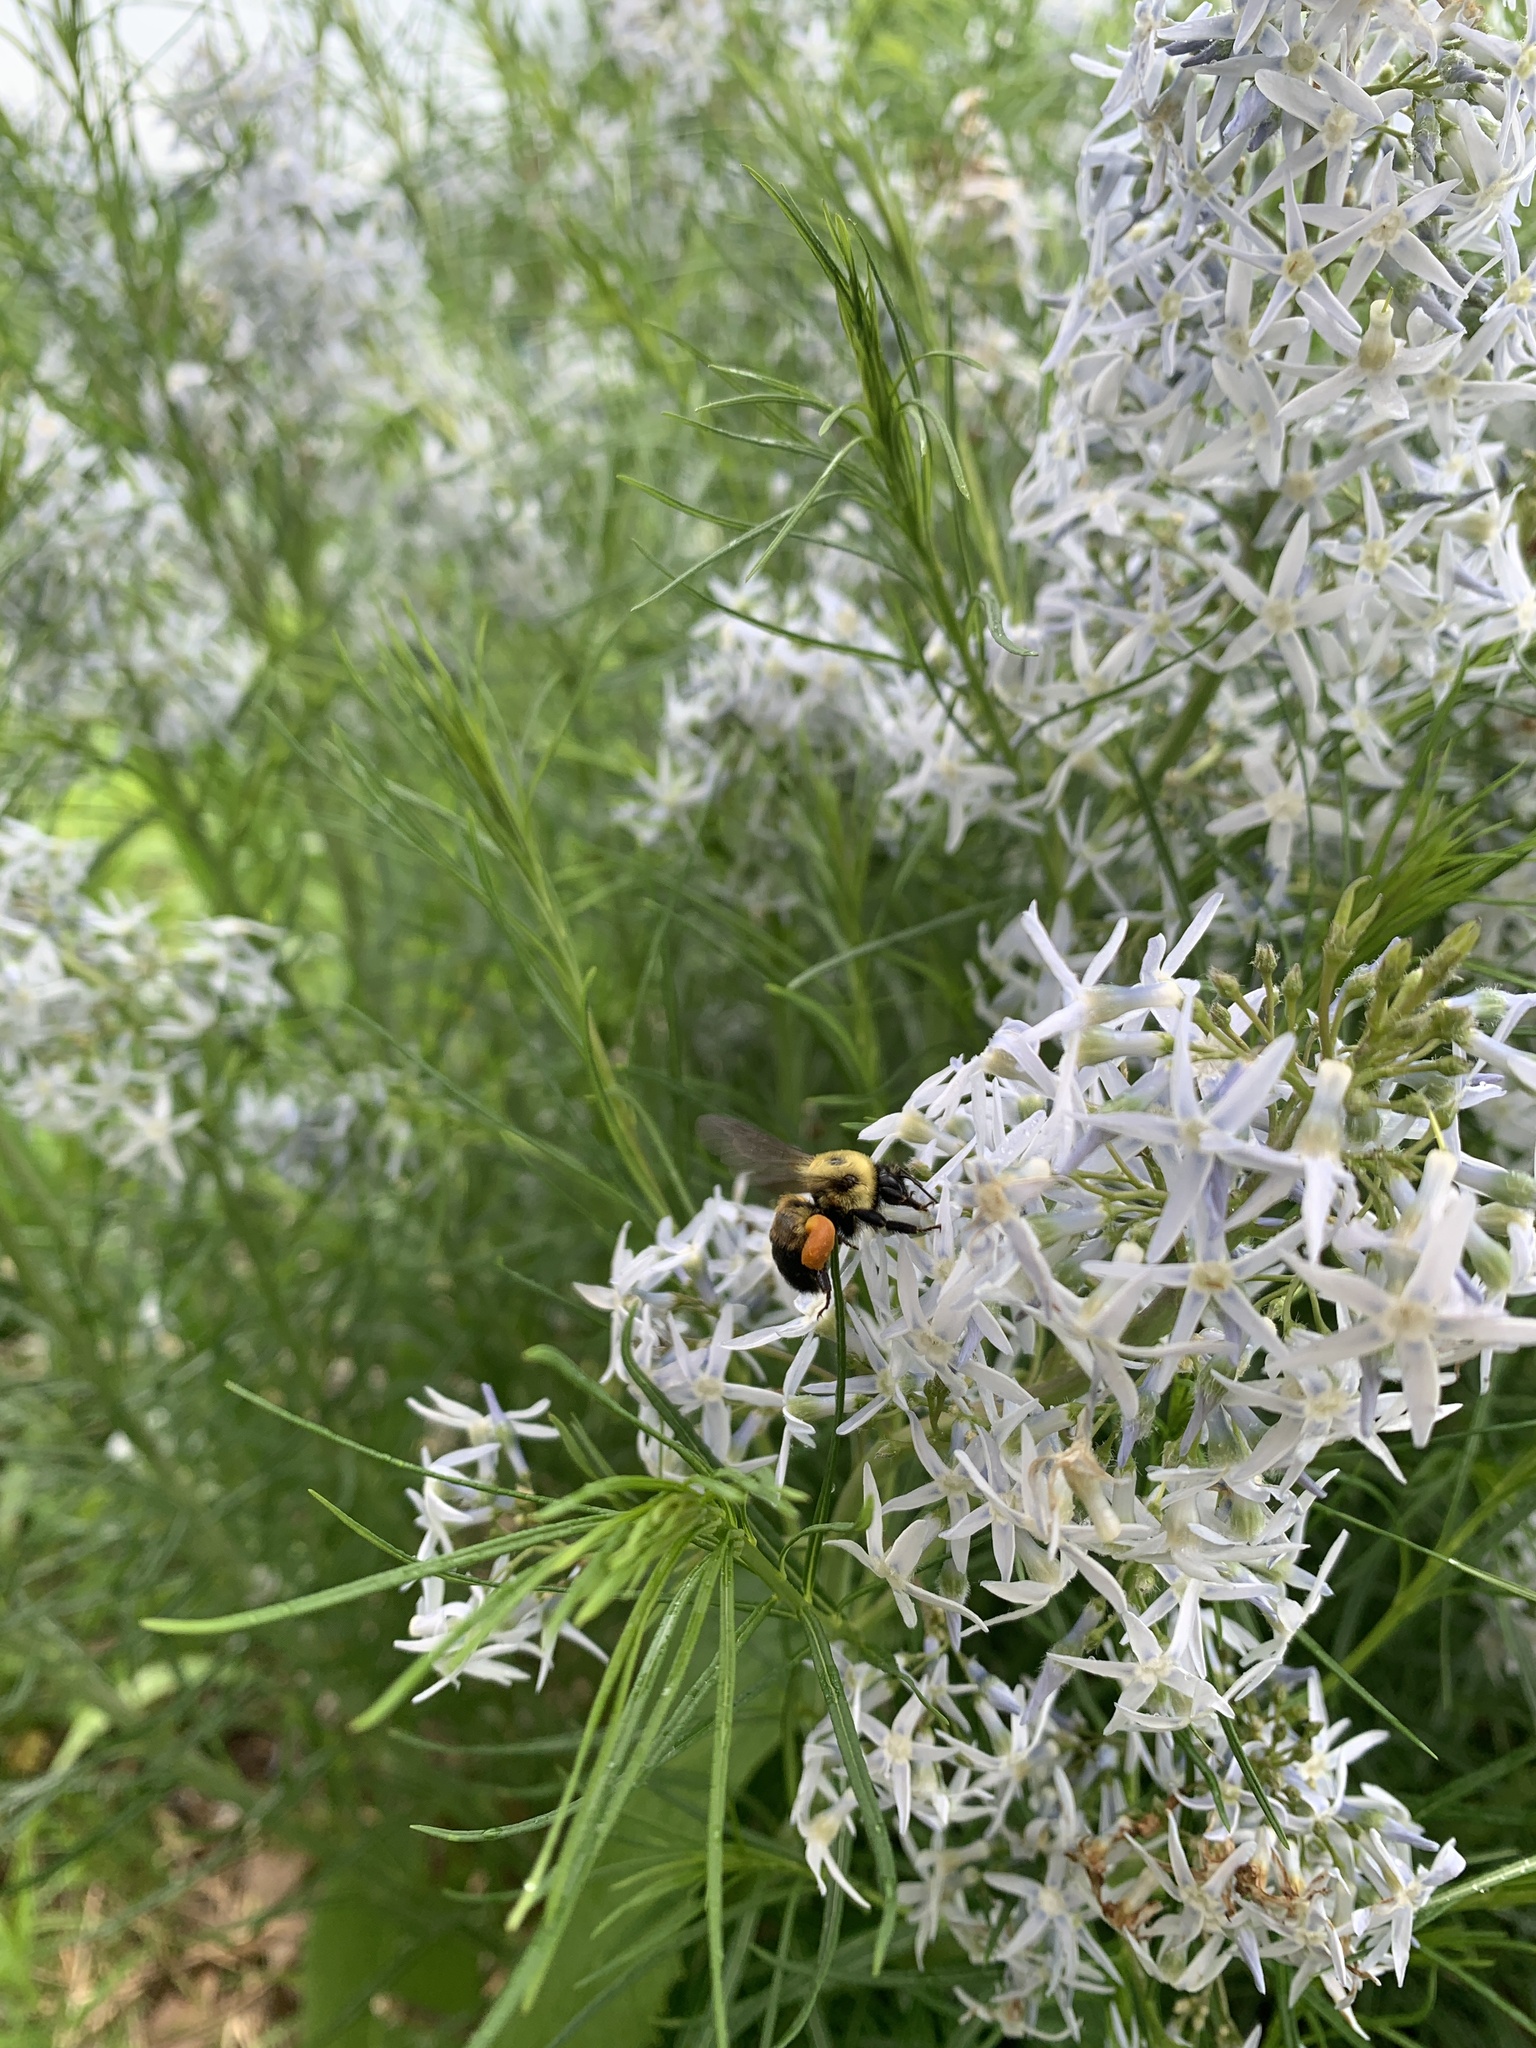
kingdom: Animalia
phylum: Arthropoda
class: Insecta
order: Hymenoptera
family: Apidae
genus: Bombus
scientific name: Bombus griseocollis
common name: Brown-belted bumble bee
